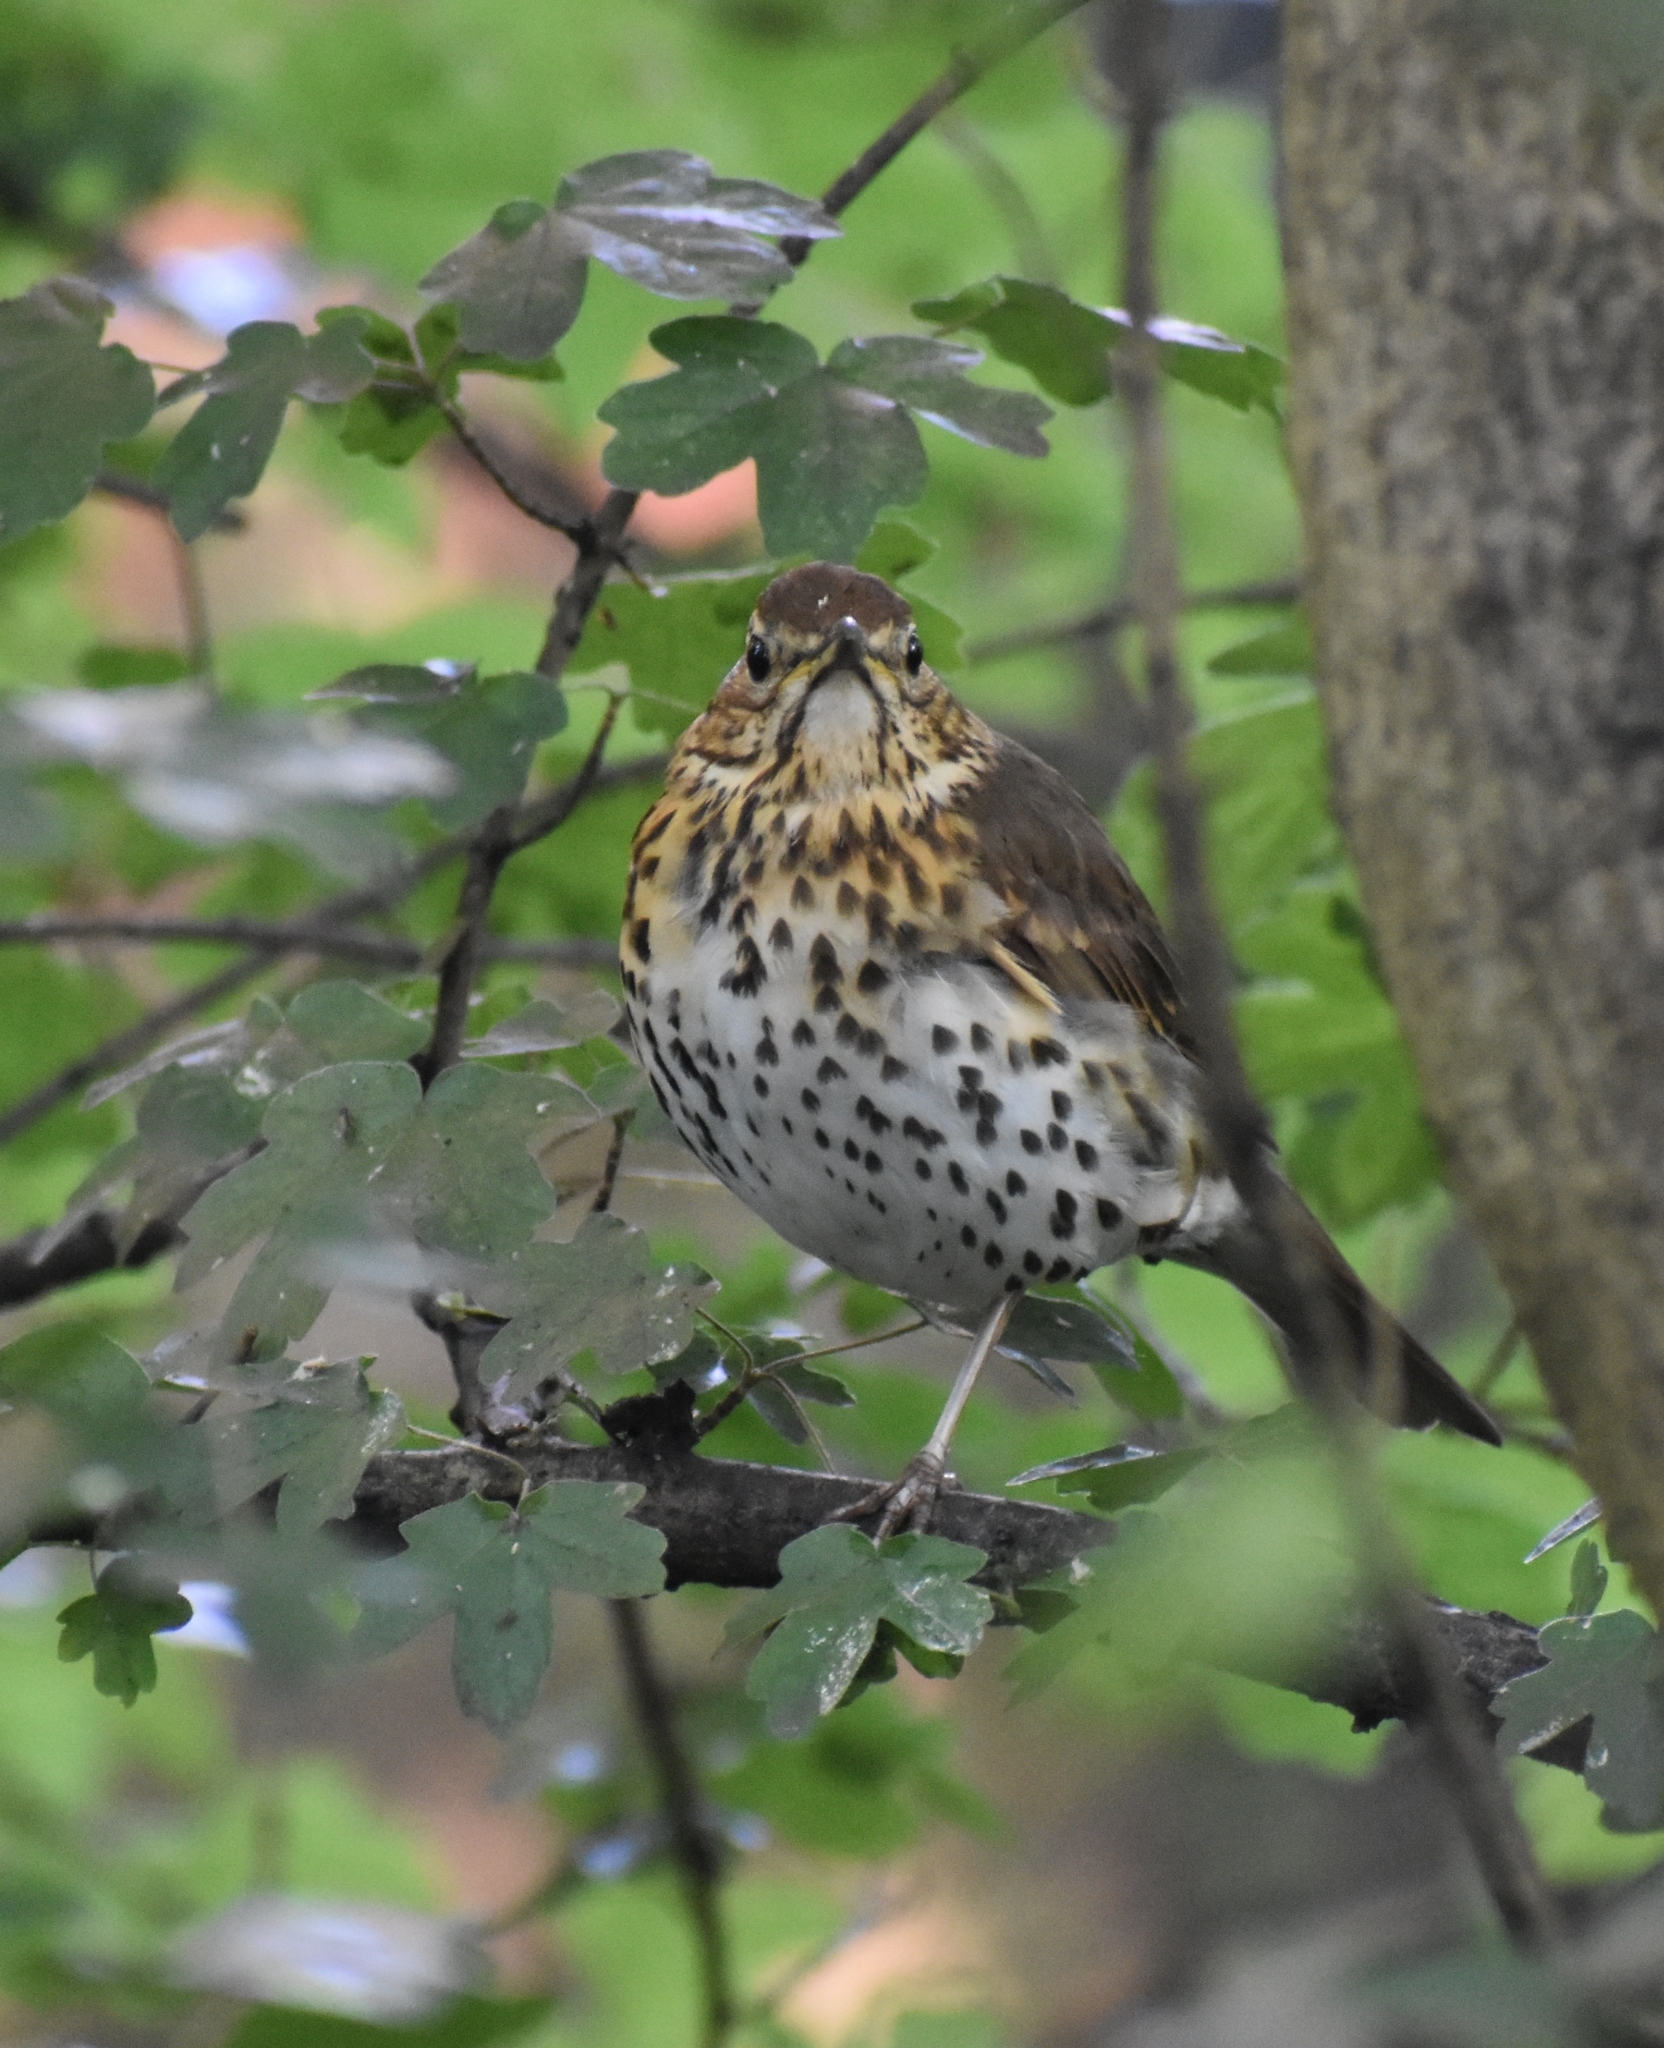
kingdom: Animalia
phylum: Chordata
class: Aves
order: Passeriformes
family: Turdidae
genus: Turdus
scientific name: Turdus philomelos
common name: Song thrush
